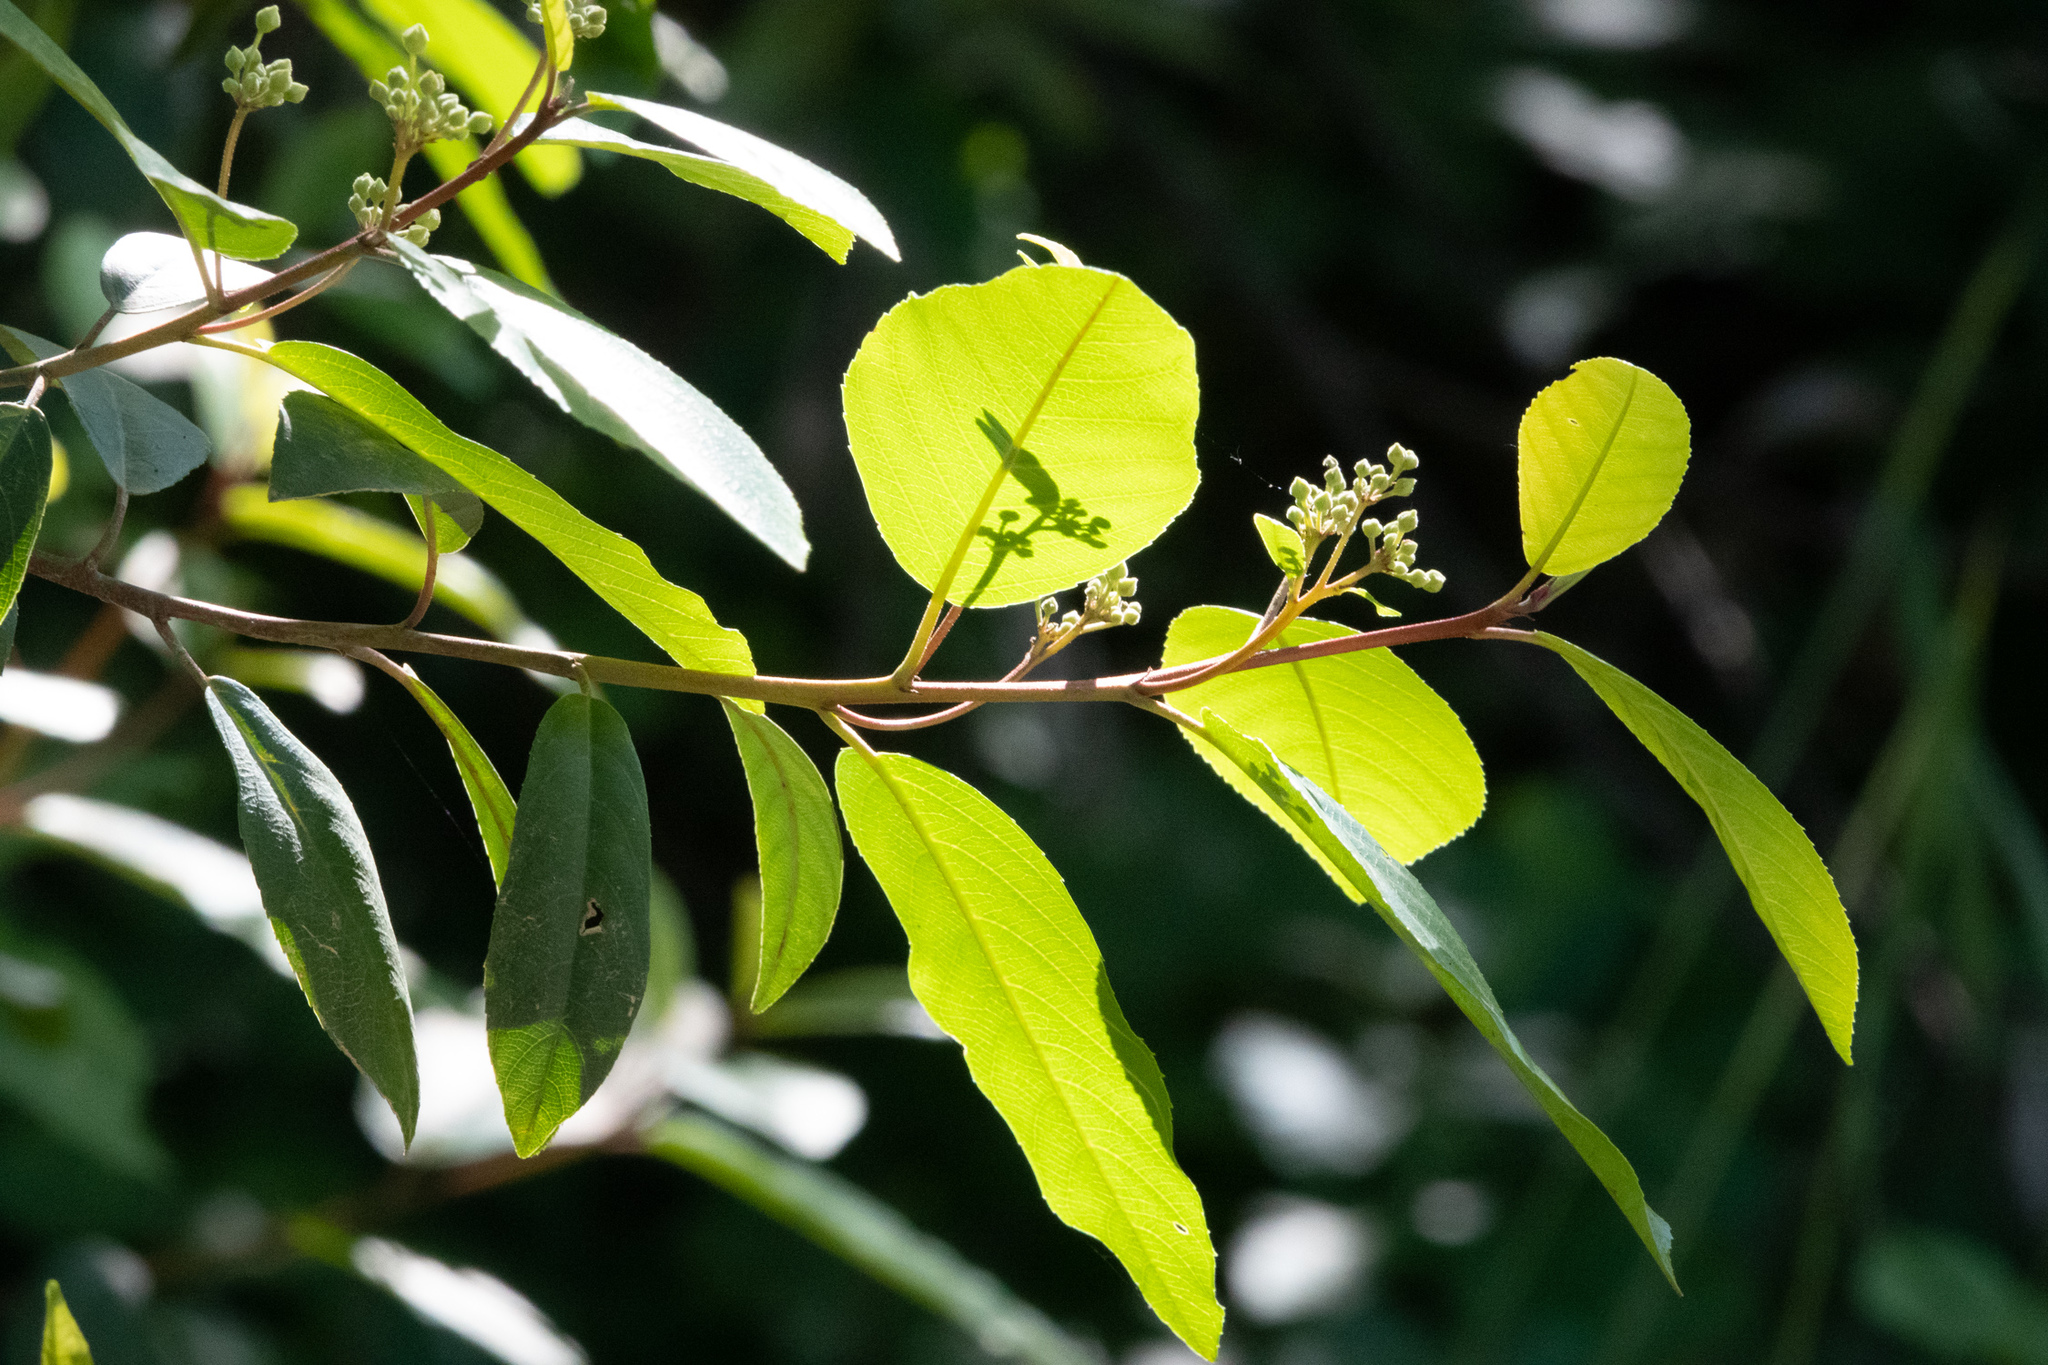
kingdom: Plantae
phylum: Tracheophyta
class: Magnoliopsida
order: Rosales
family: Rhamnaceae
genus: Frangula
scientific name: Frangula californica
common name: California buckthorn
